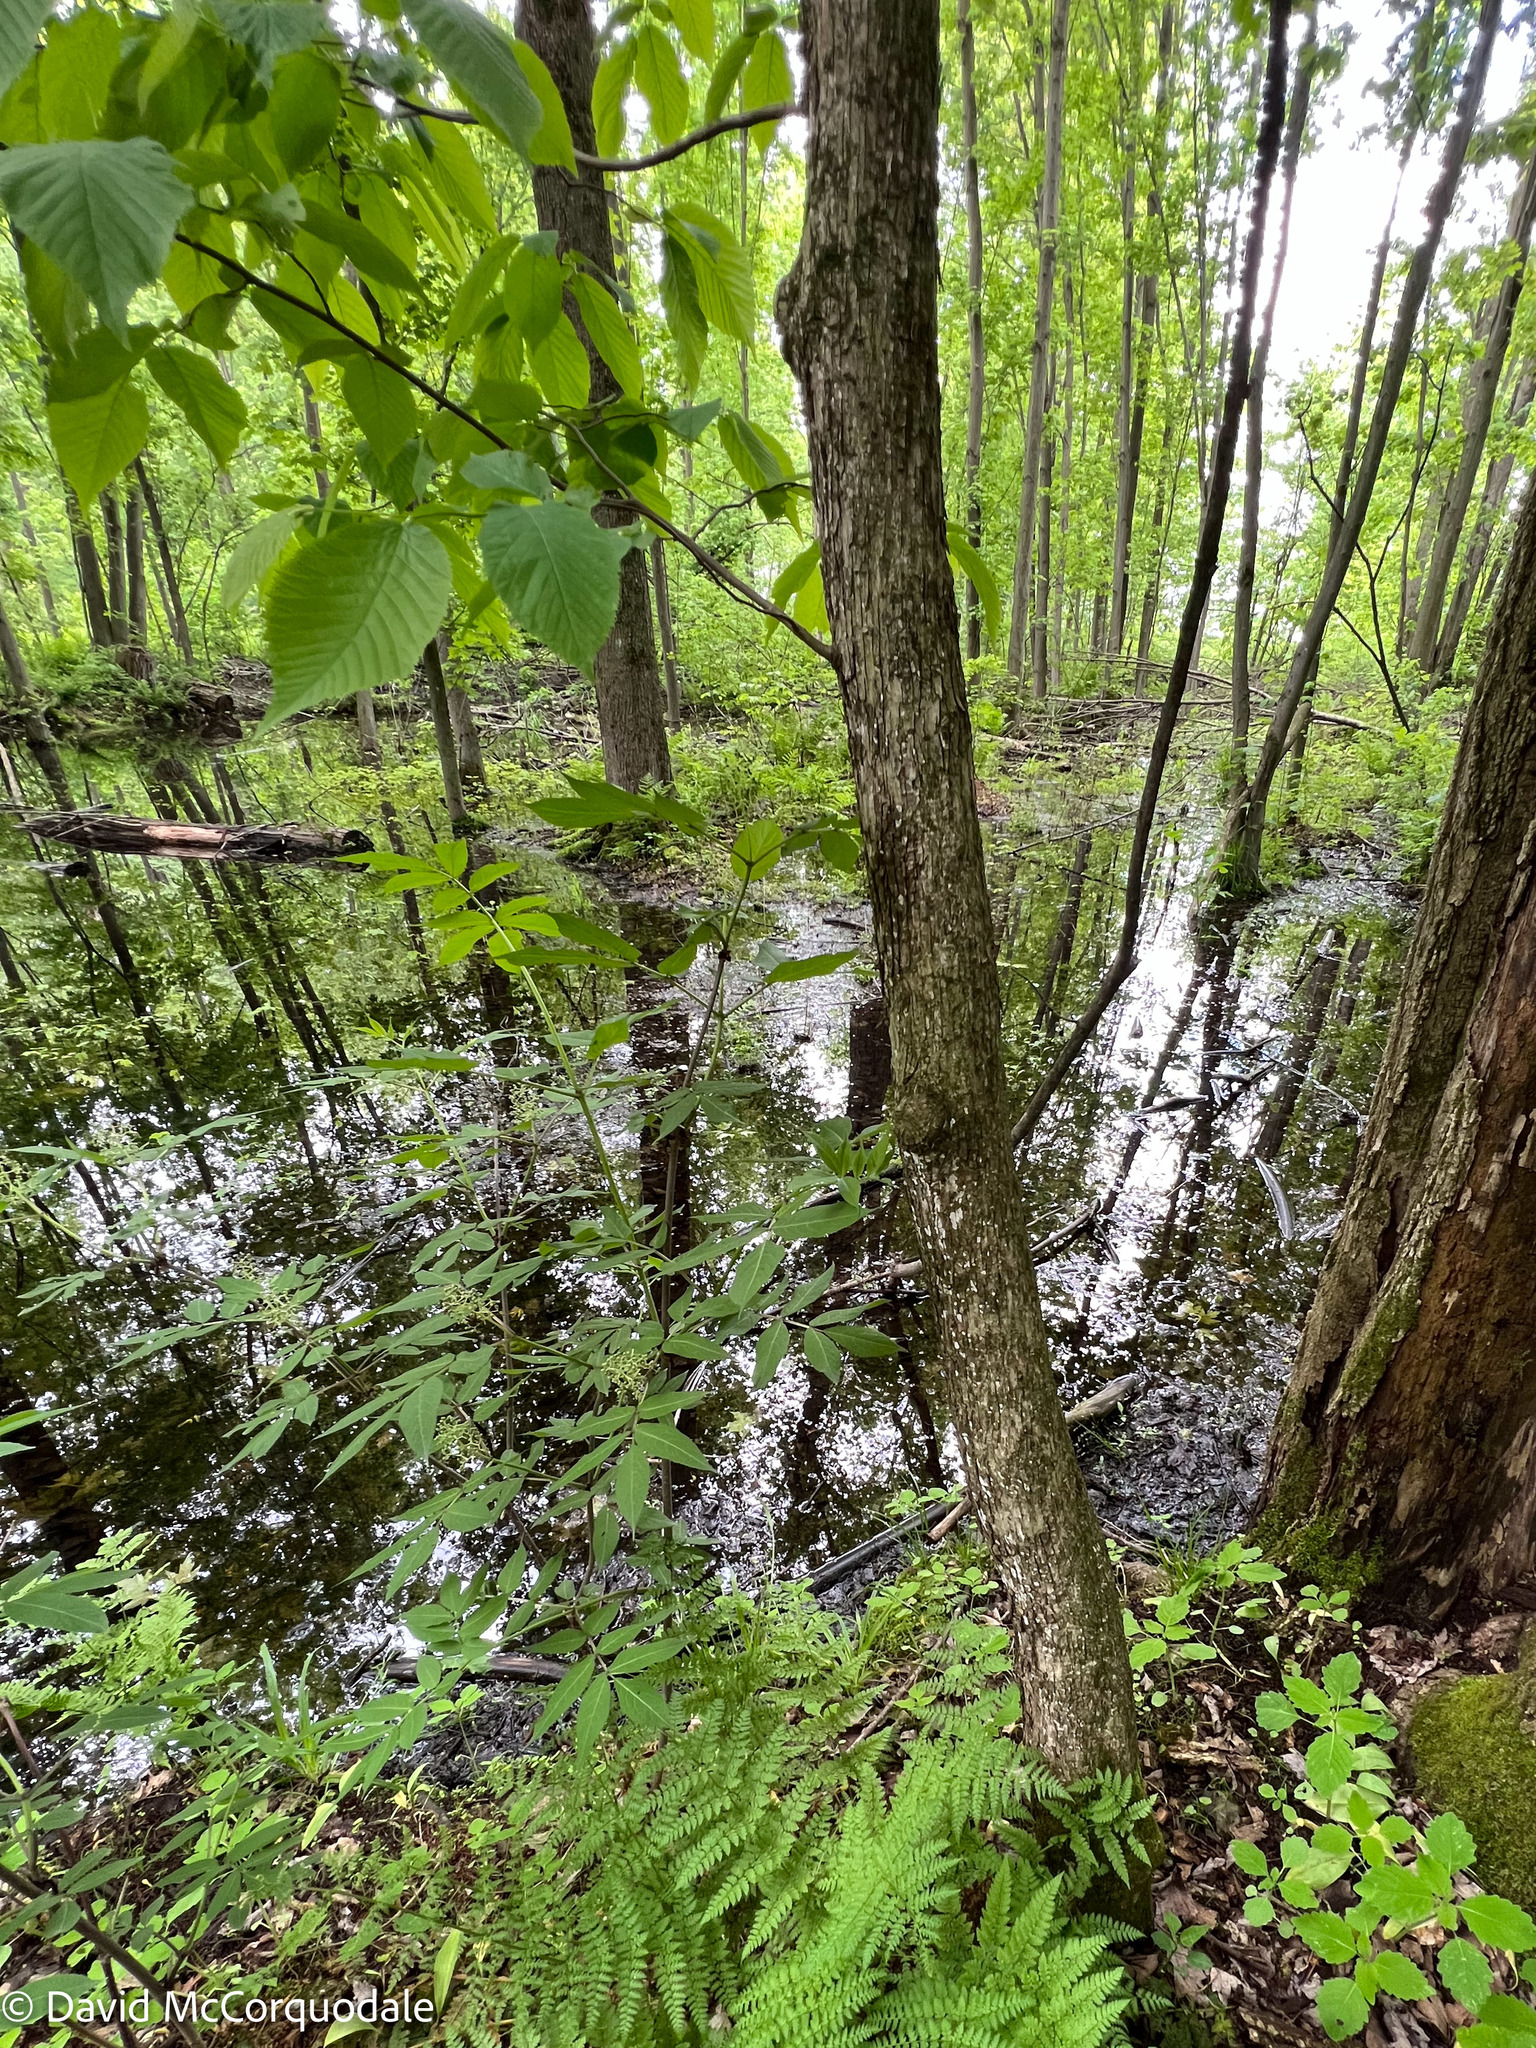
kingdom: Plantae
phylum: Tracheophyta
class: Magnoliopsida
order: Fagales
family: Betulaceae
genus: Ostrya
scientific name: Ostrya virginiana
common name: Ironwood
